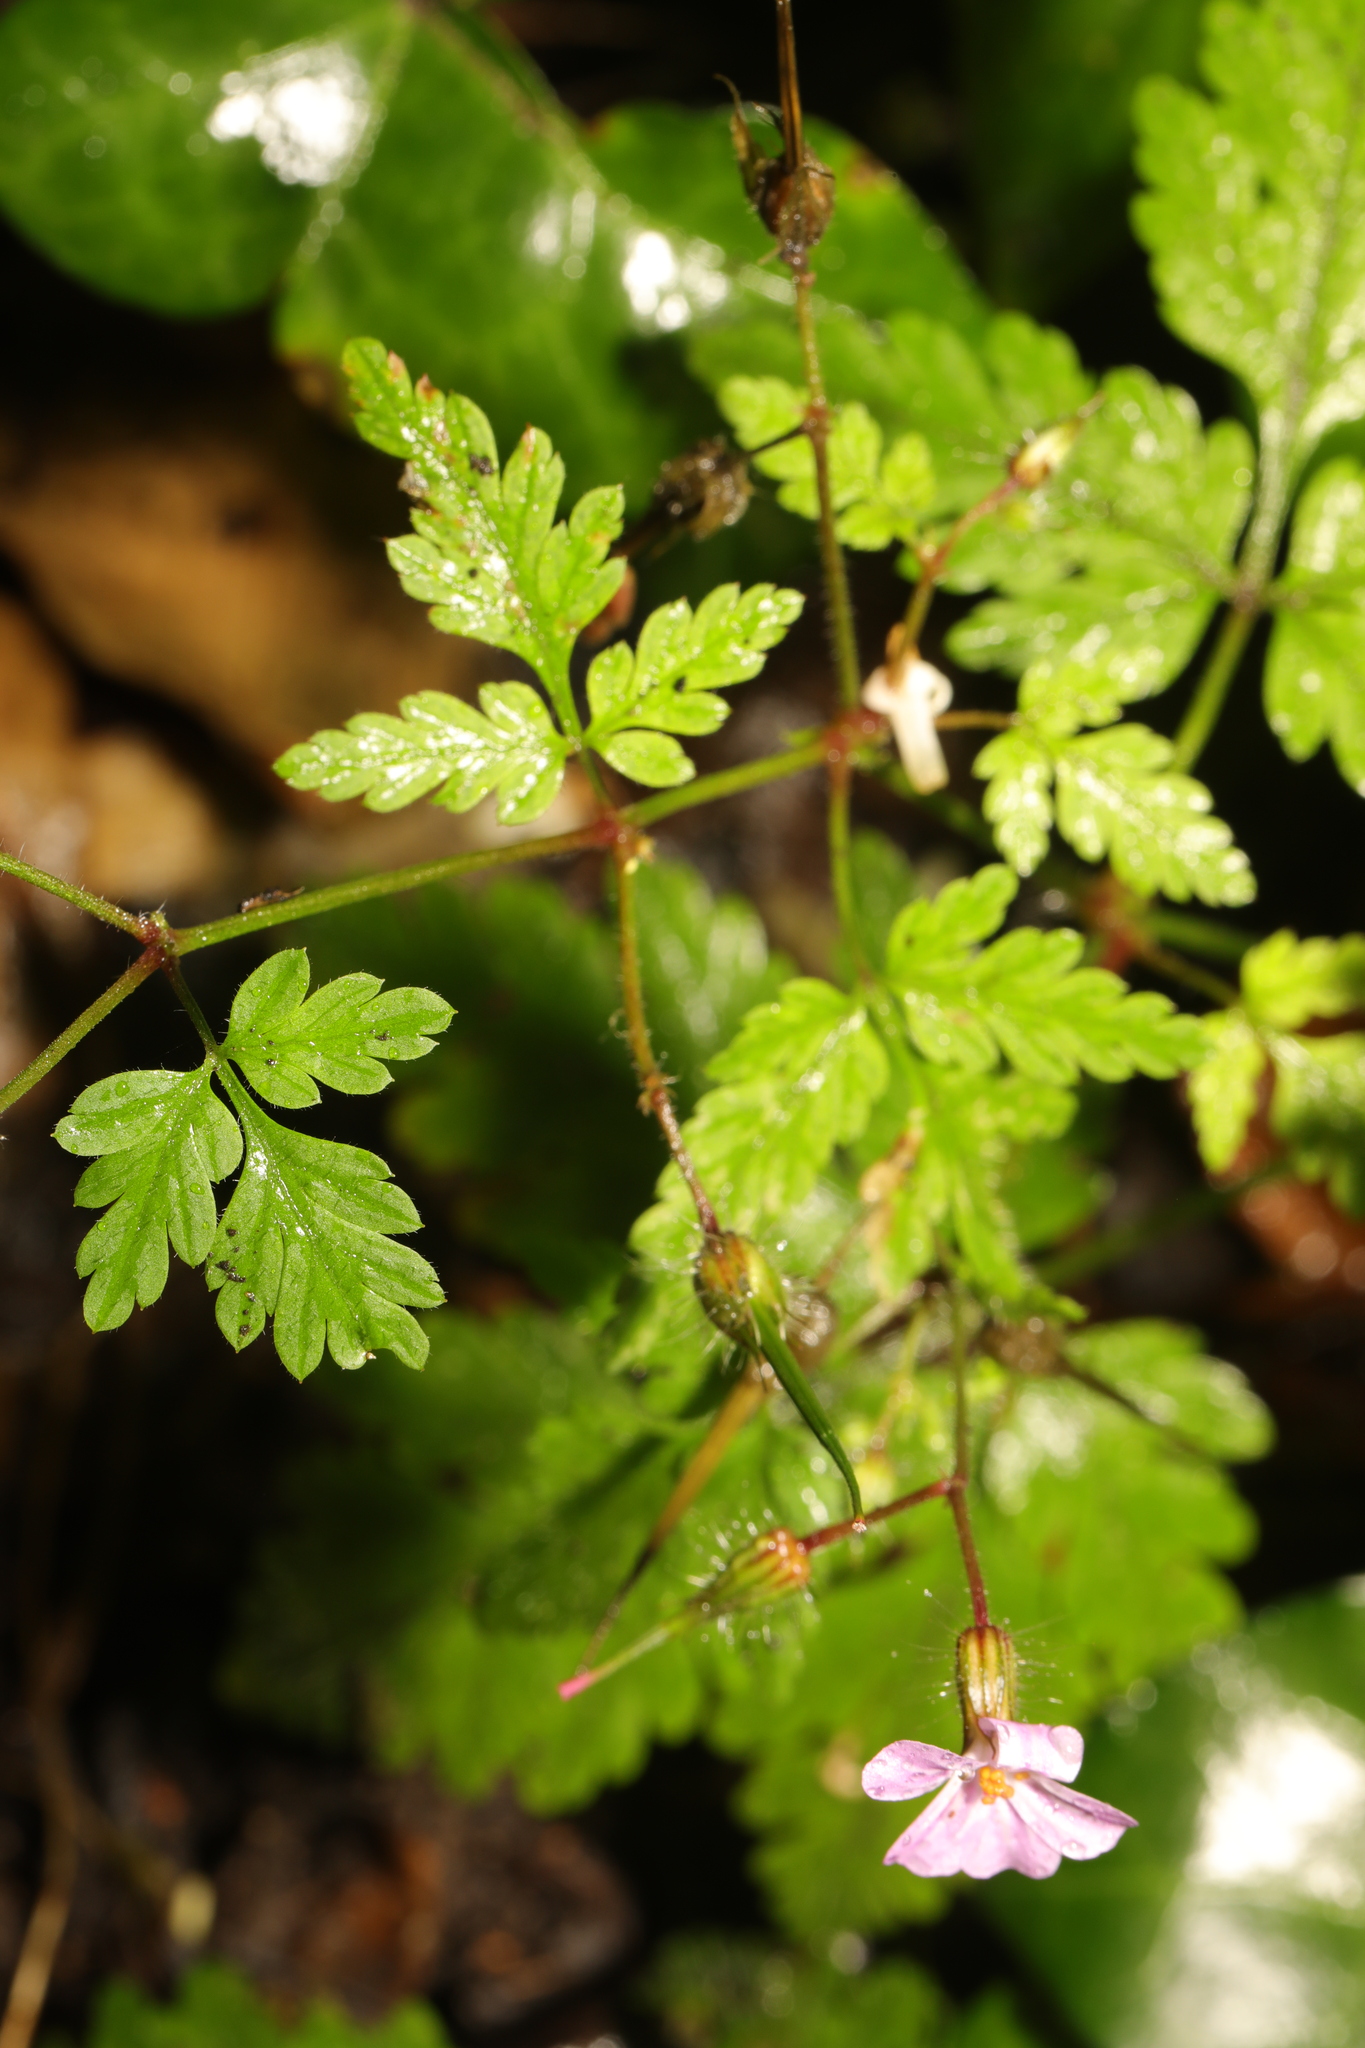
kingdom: Plantae
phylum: Tracheophyta
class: Magnoliopsida
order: Geraniales
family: Geraniaceae
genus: Geranium
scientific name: Geranium robertianum
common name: Herb-robert
